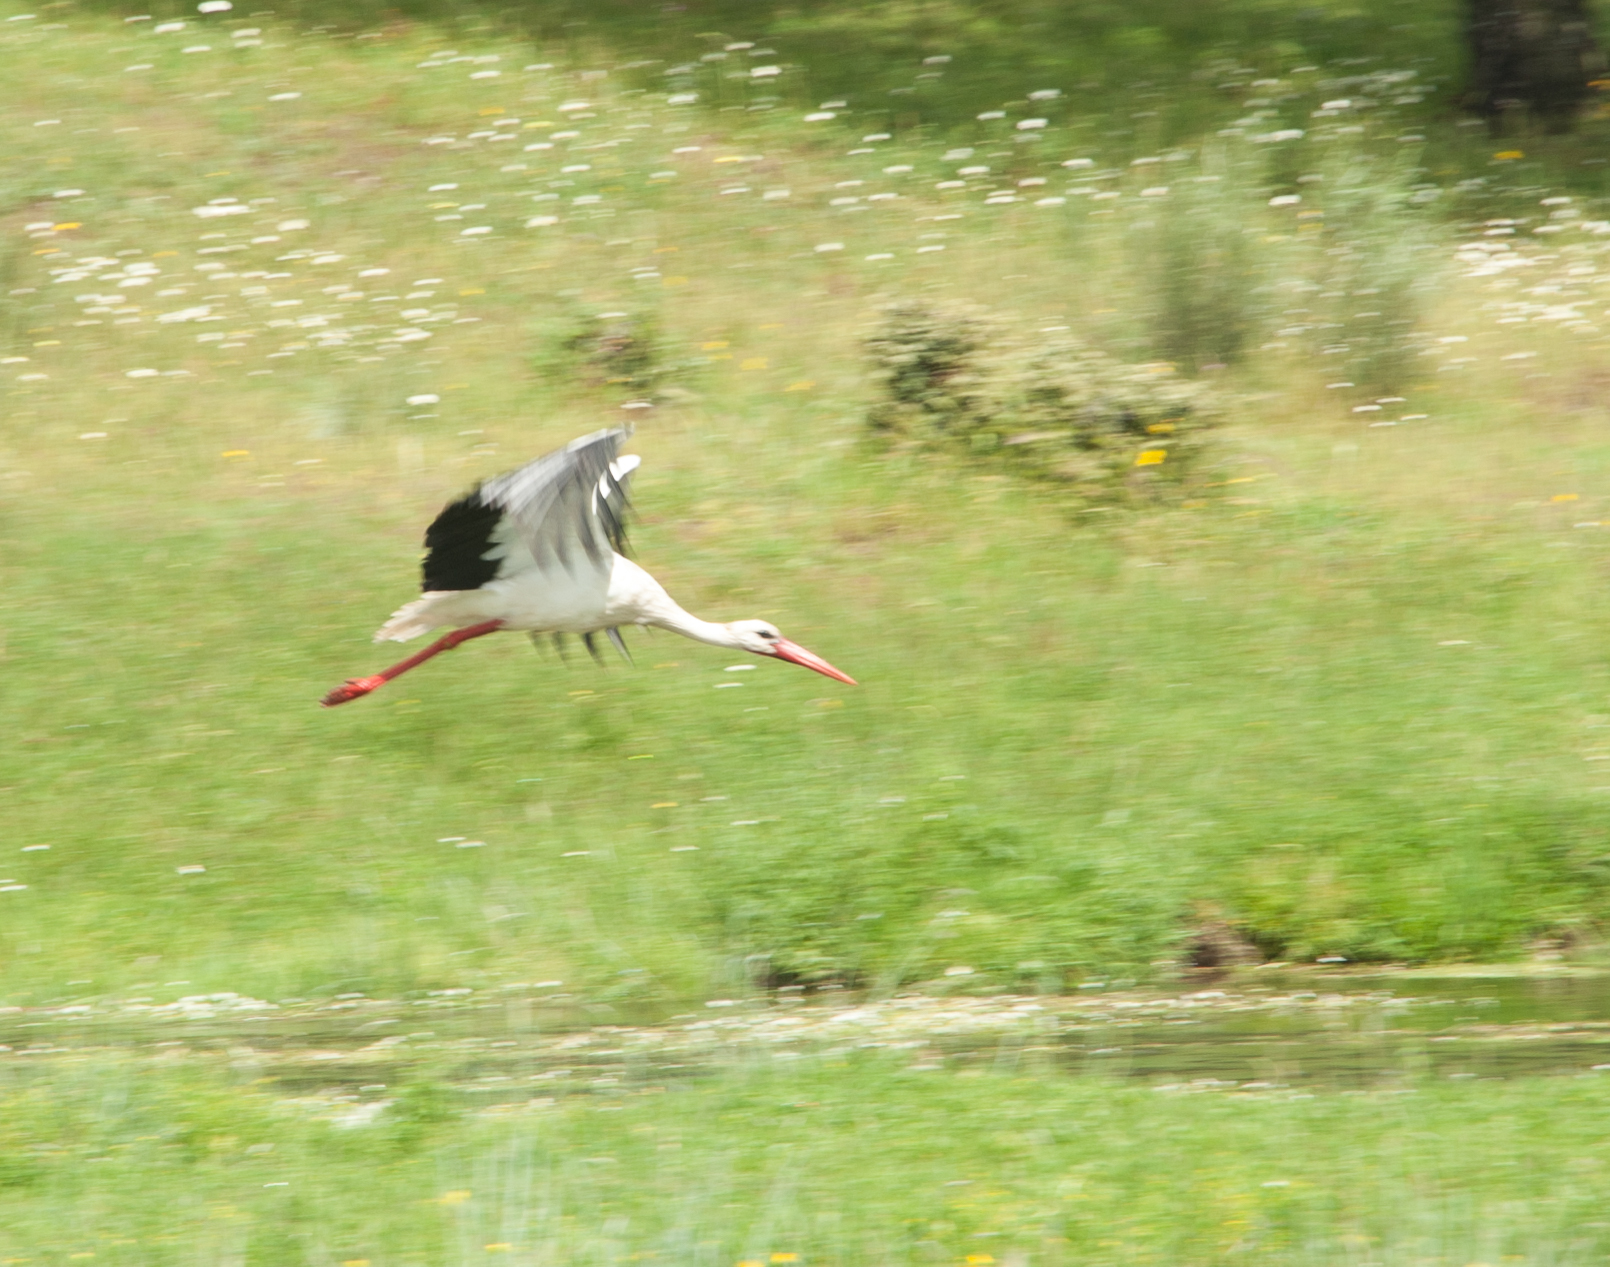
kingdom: Animalia
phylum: Chordata
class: Aves
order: Ciconiiformes
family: Ciconiidae
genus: Ciconia
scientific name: Ciconia ciconia
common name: White stork
